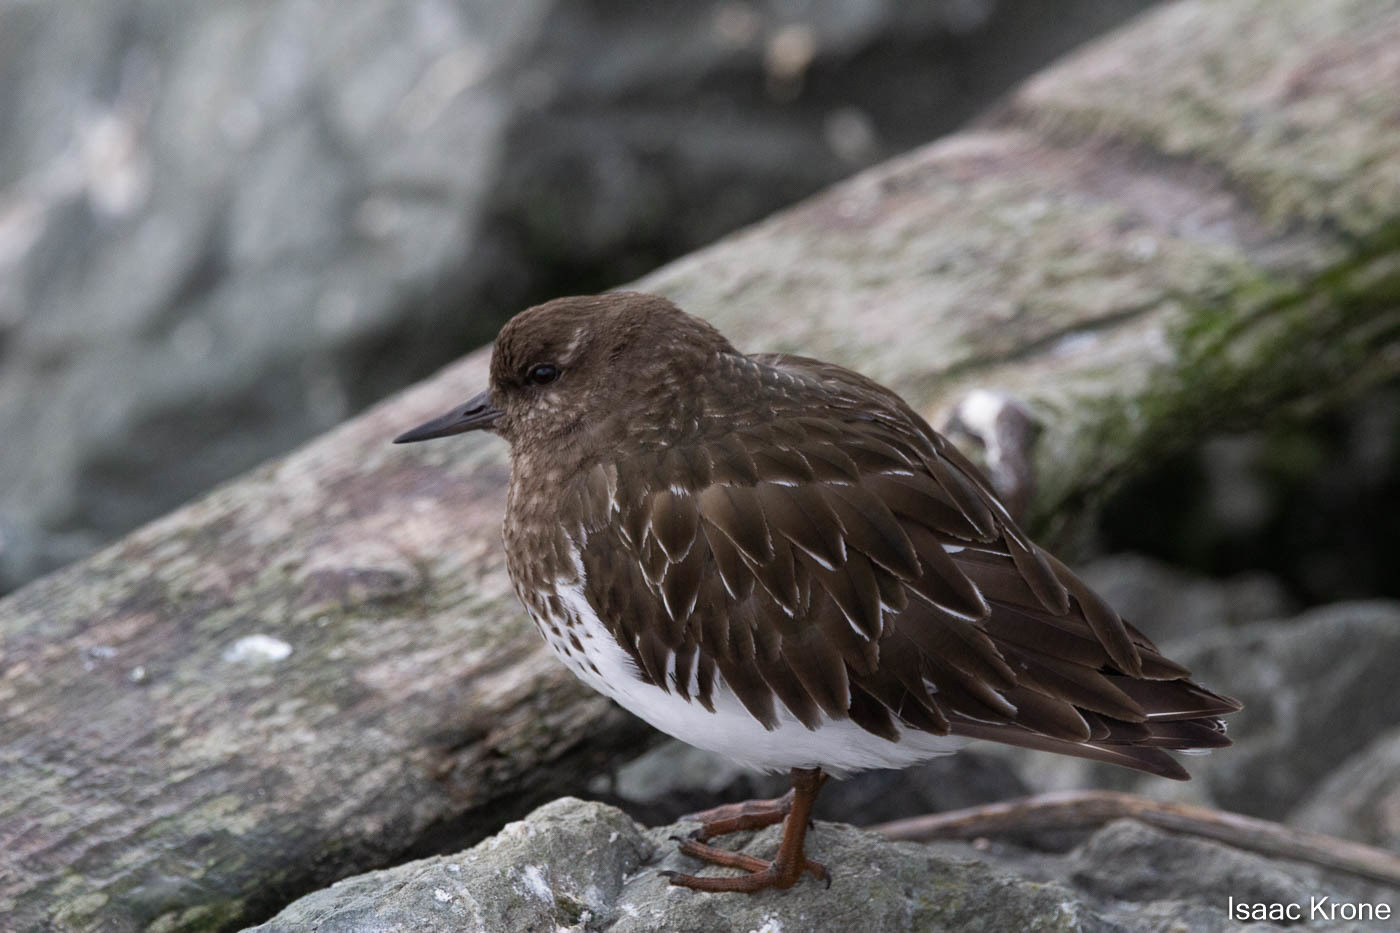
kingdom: Animalia
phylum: Chordata
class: Aves
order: Charadriiformes
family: Scolopacidae
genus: Arenaria
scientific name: Arenaria melanocephala
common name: Black turnstone
